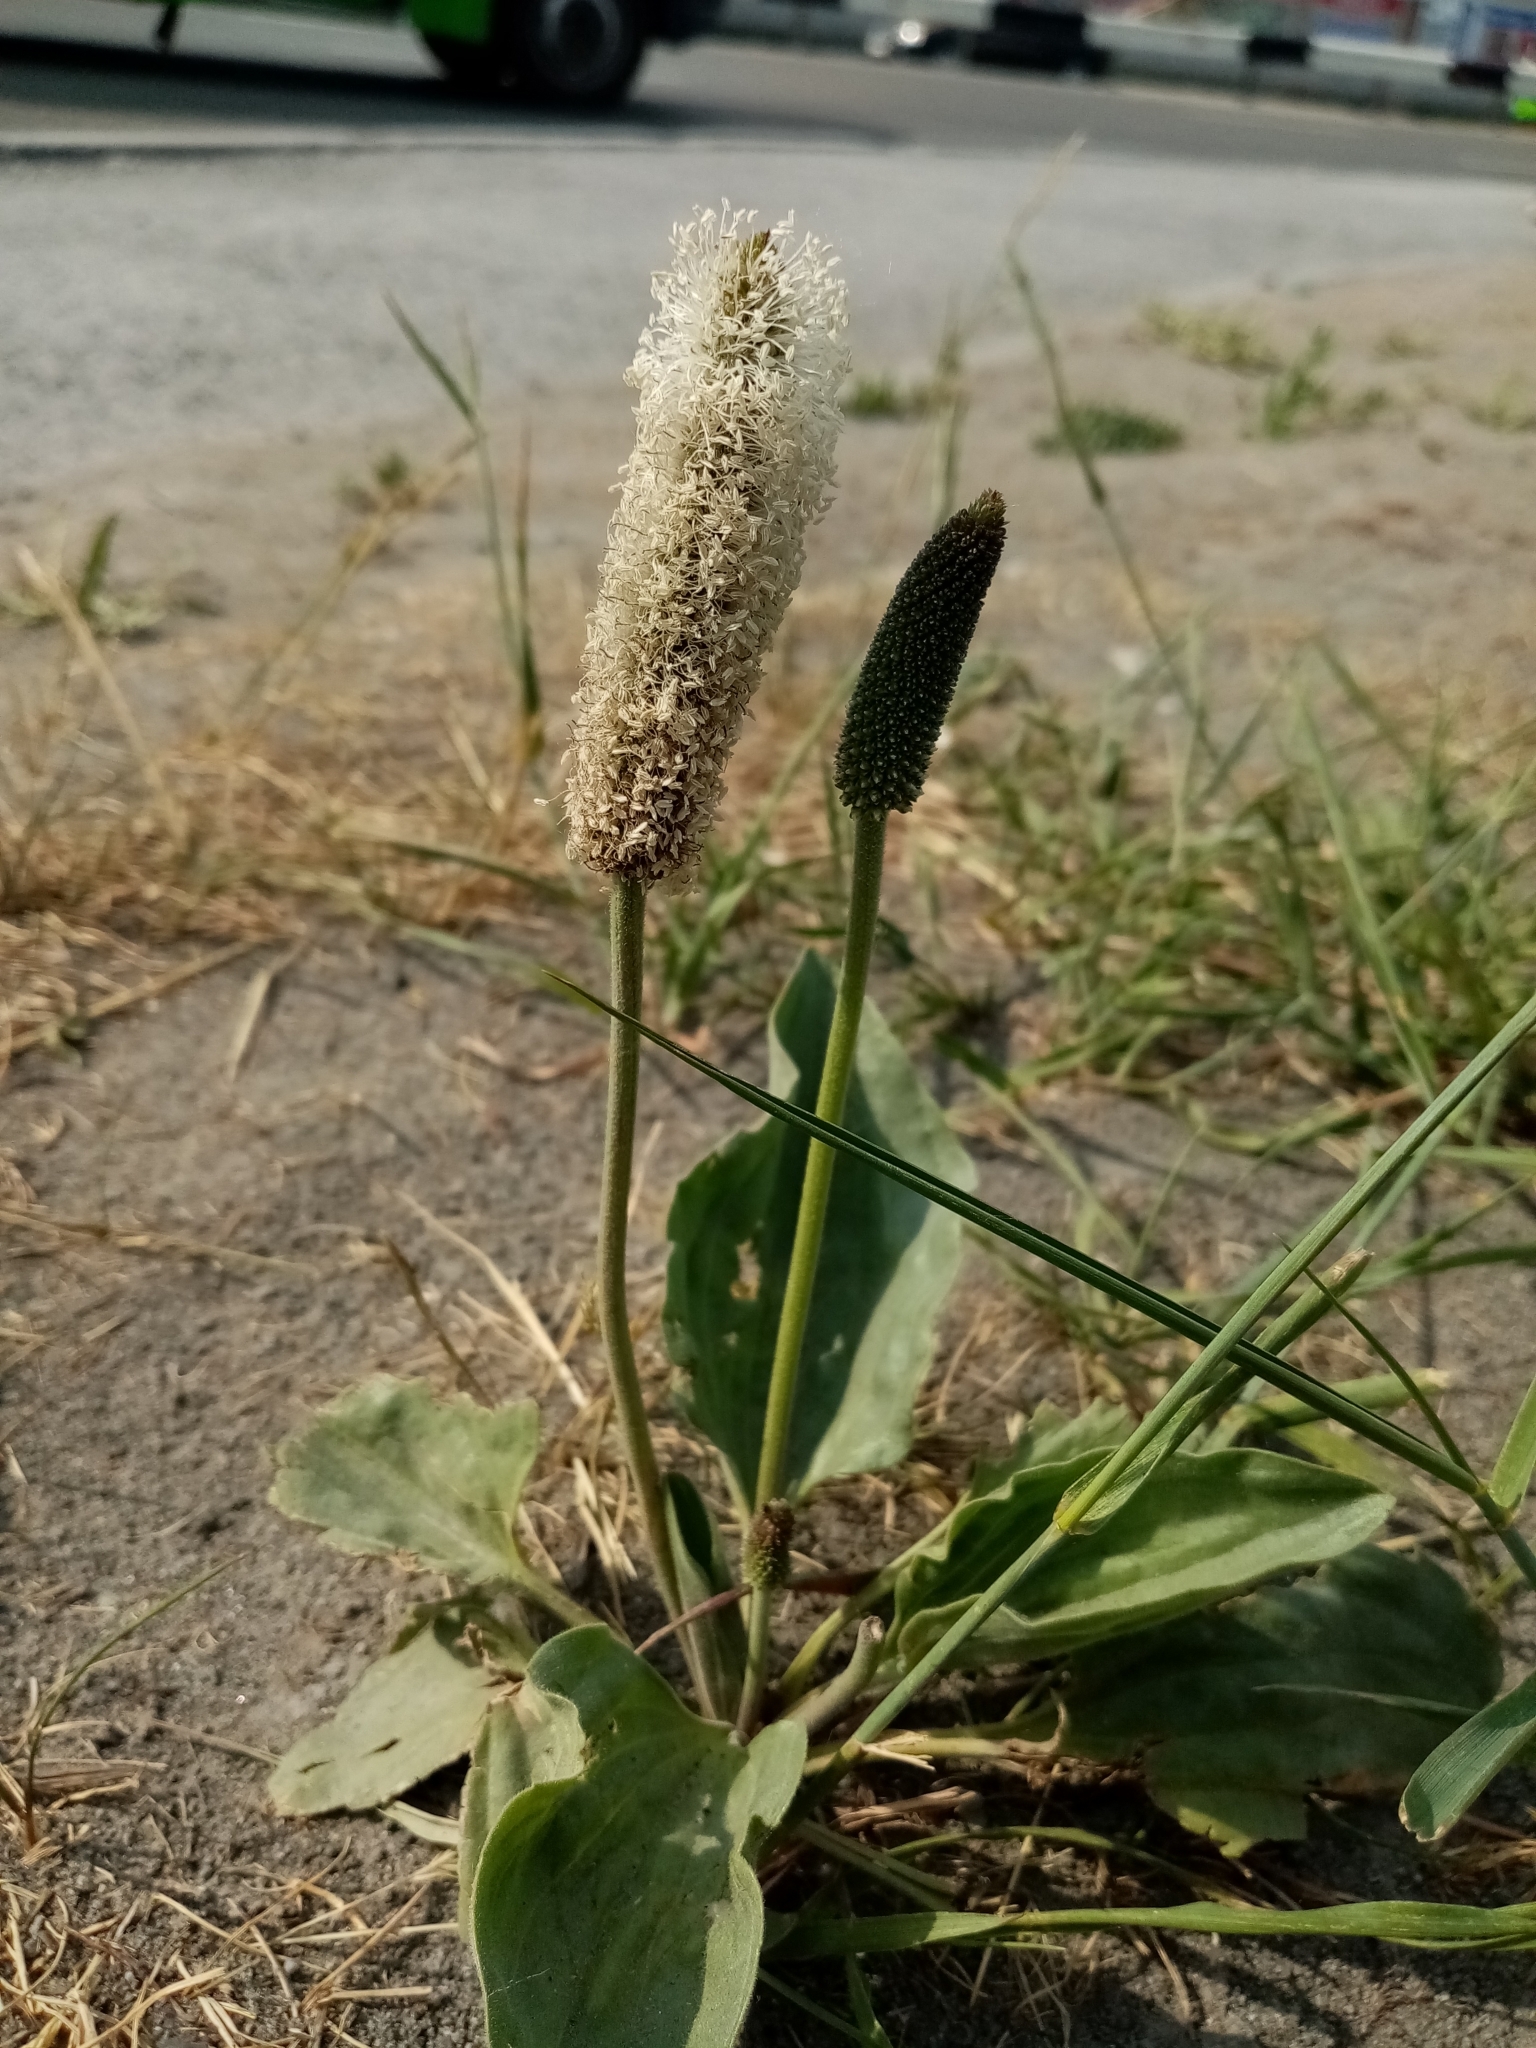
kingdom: Plantae
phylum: Tracheophyta
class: Magnoliopsida
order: Lamiales
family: Plantaginaceae
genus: Plantago
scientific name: Plantago maxima
